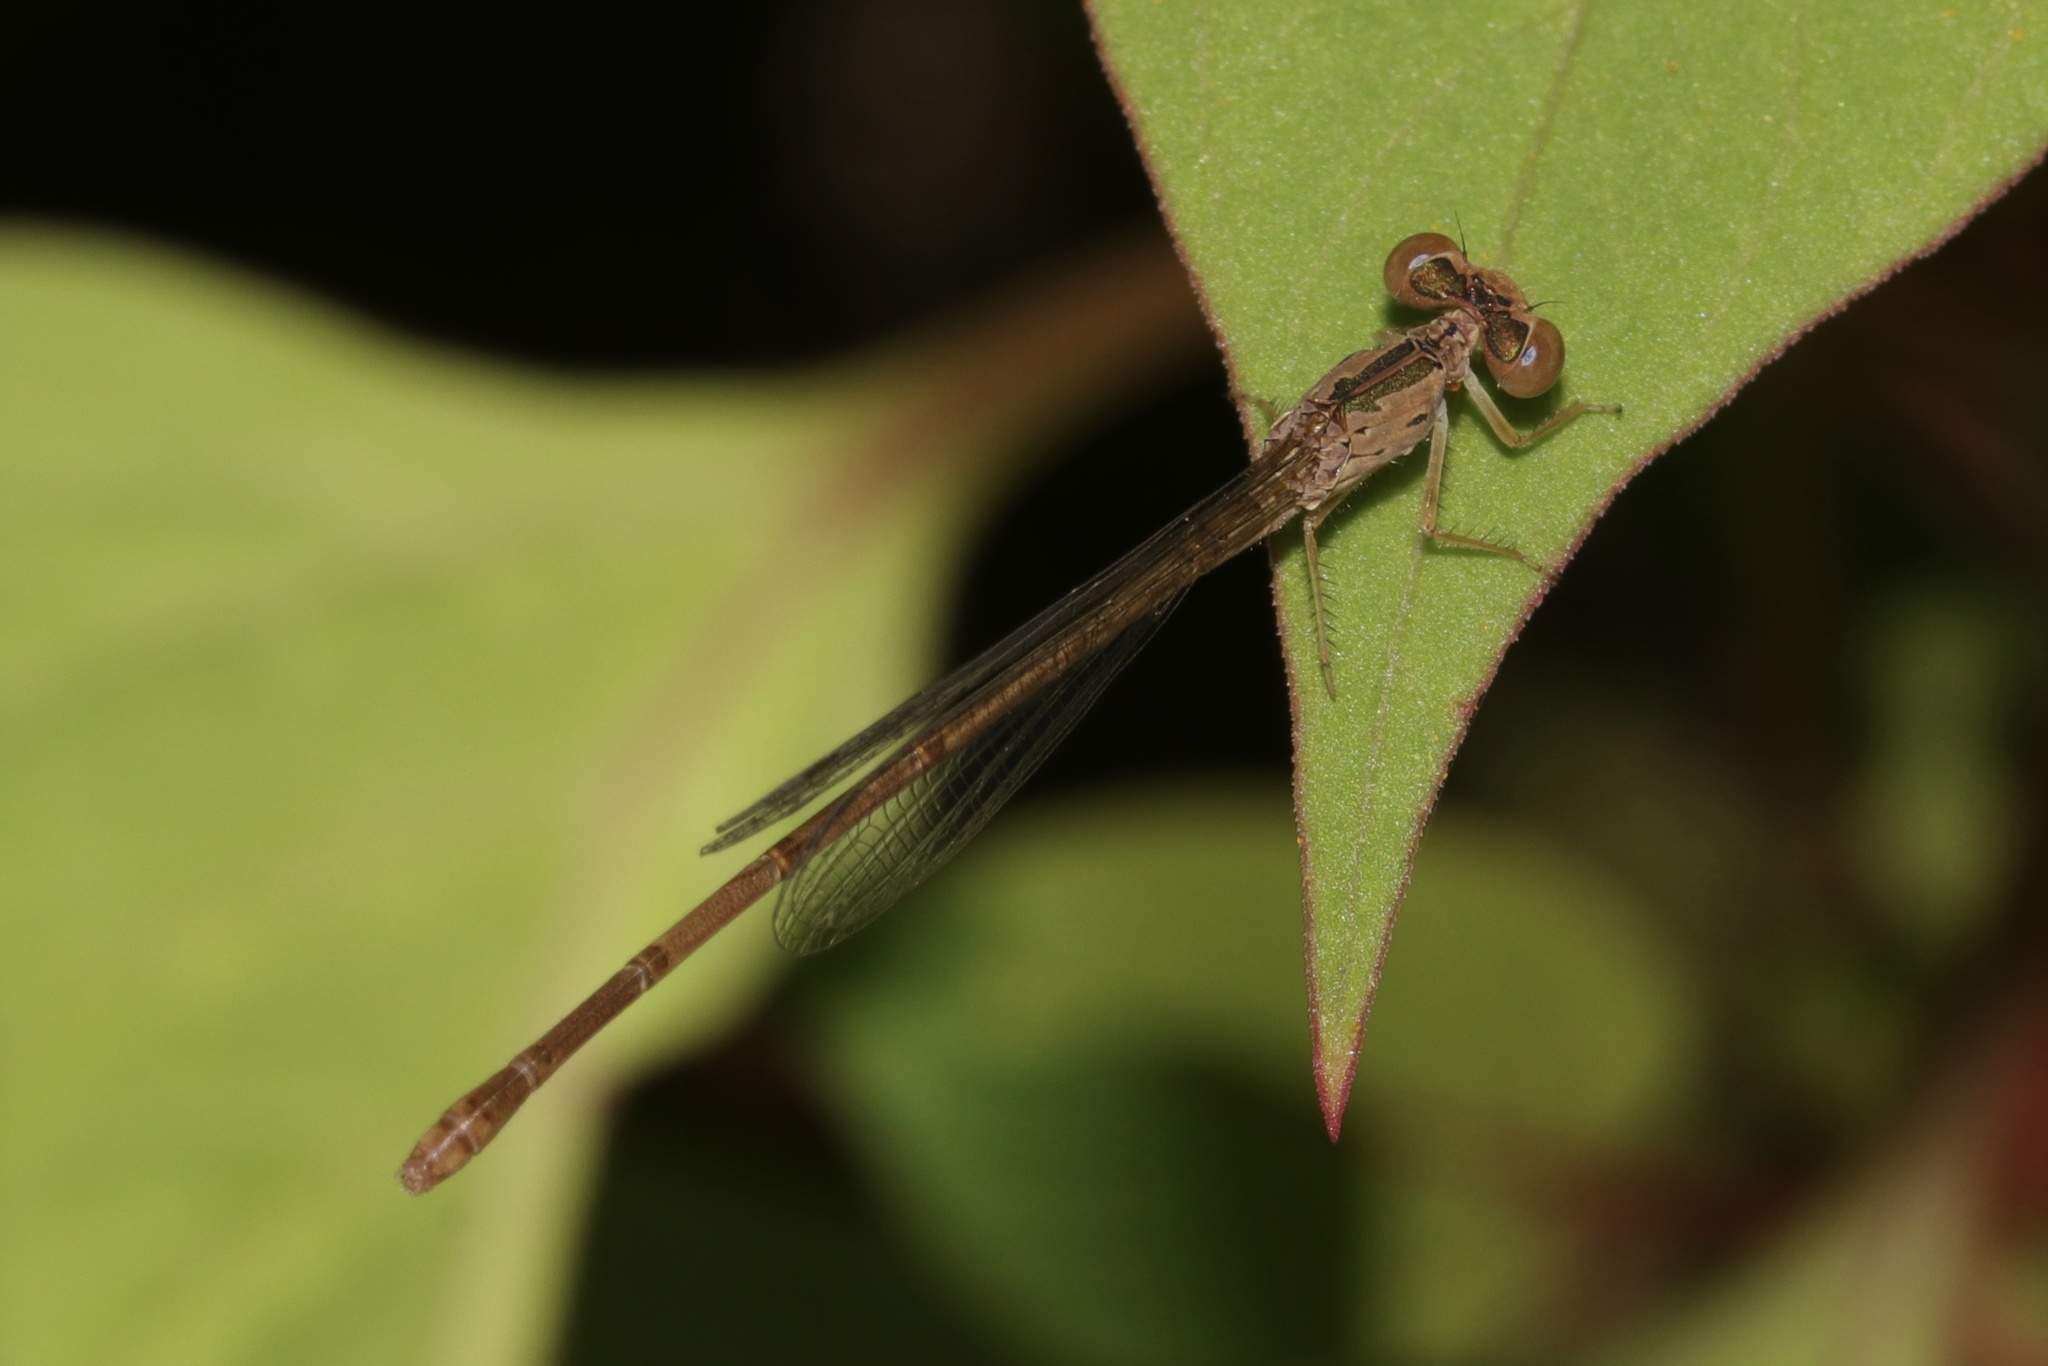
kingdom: Animalia
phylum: Arthropoda
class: Insecta
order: Odonata
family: Coenagrionidae
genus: Telebasis
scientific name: Telebasis salva
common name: Desert firetail
